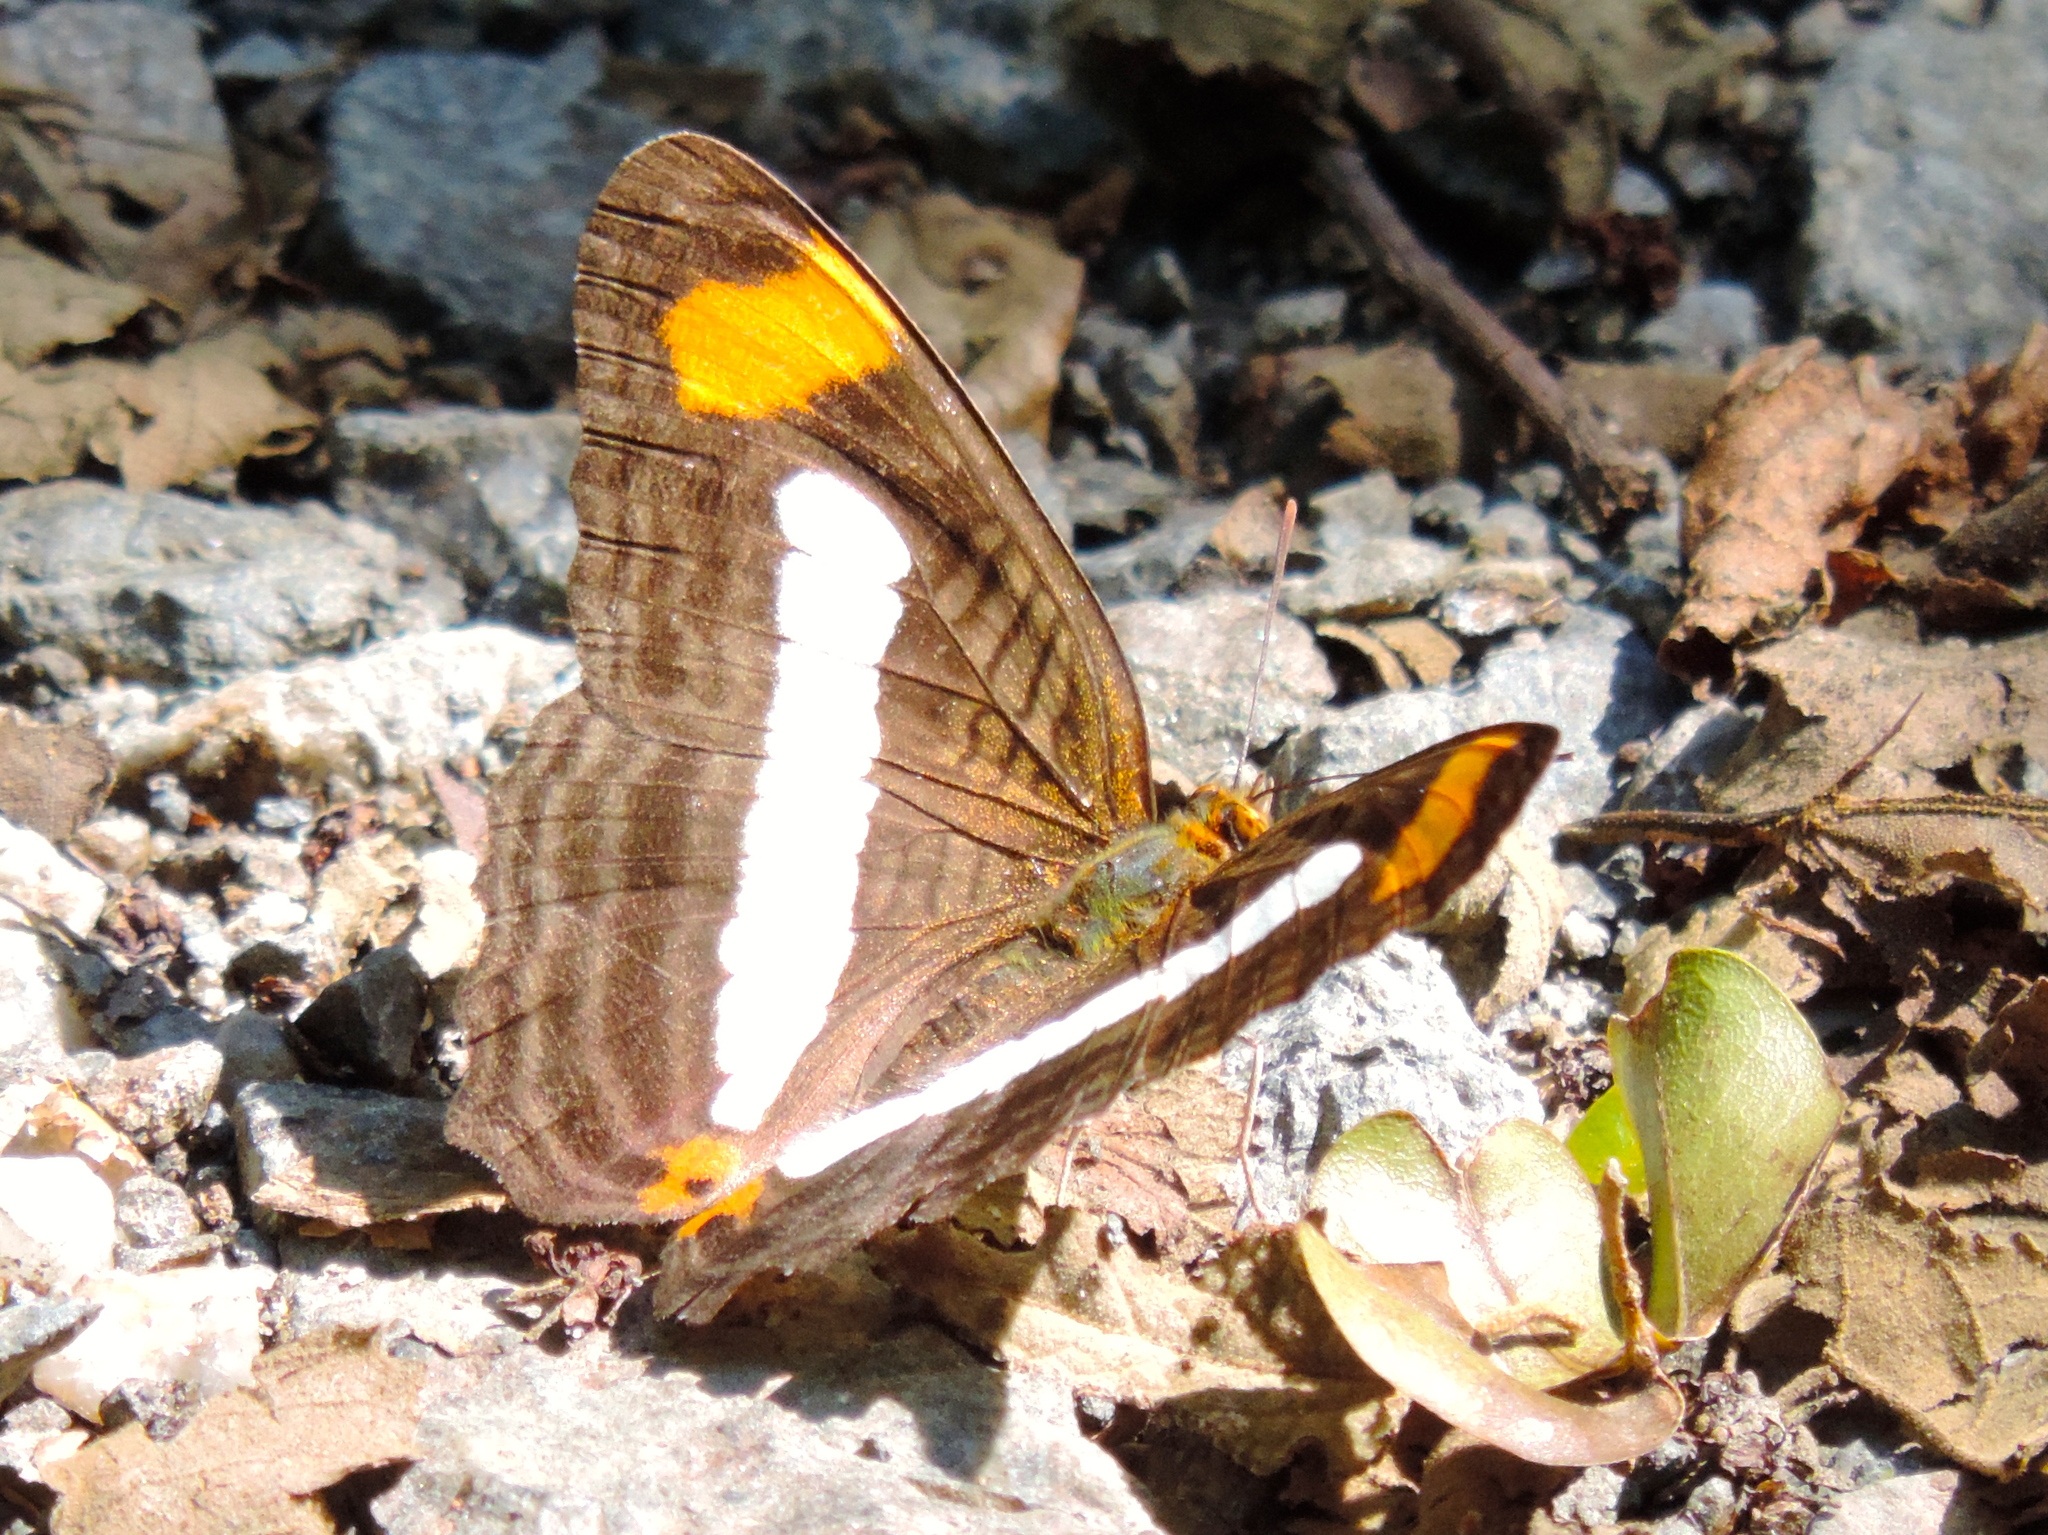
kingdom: Animalia
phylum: Arthropoda
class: Insecta
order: Lepidoptera
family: Nymphalidae
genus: Limenitis
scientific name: Limenitis iphiclus
